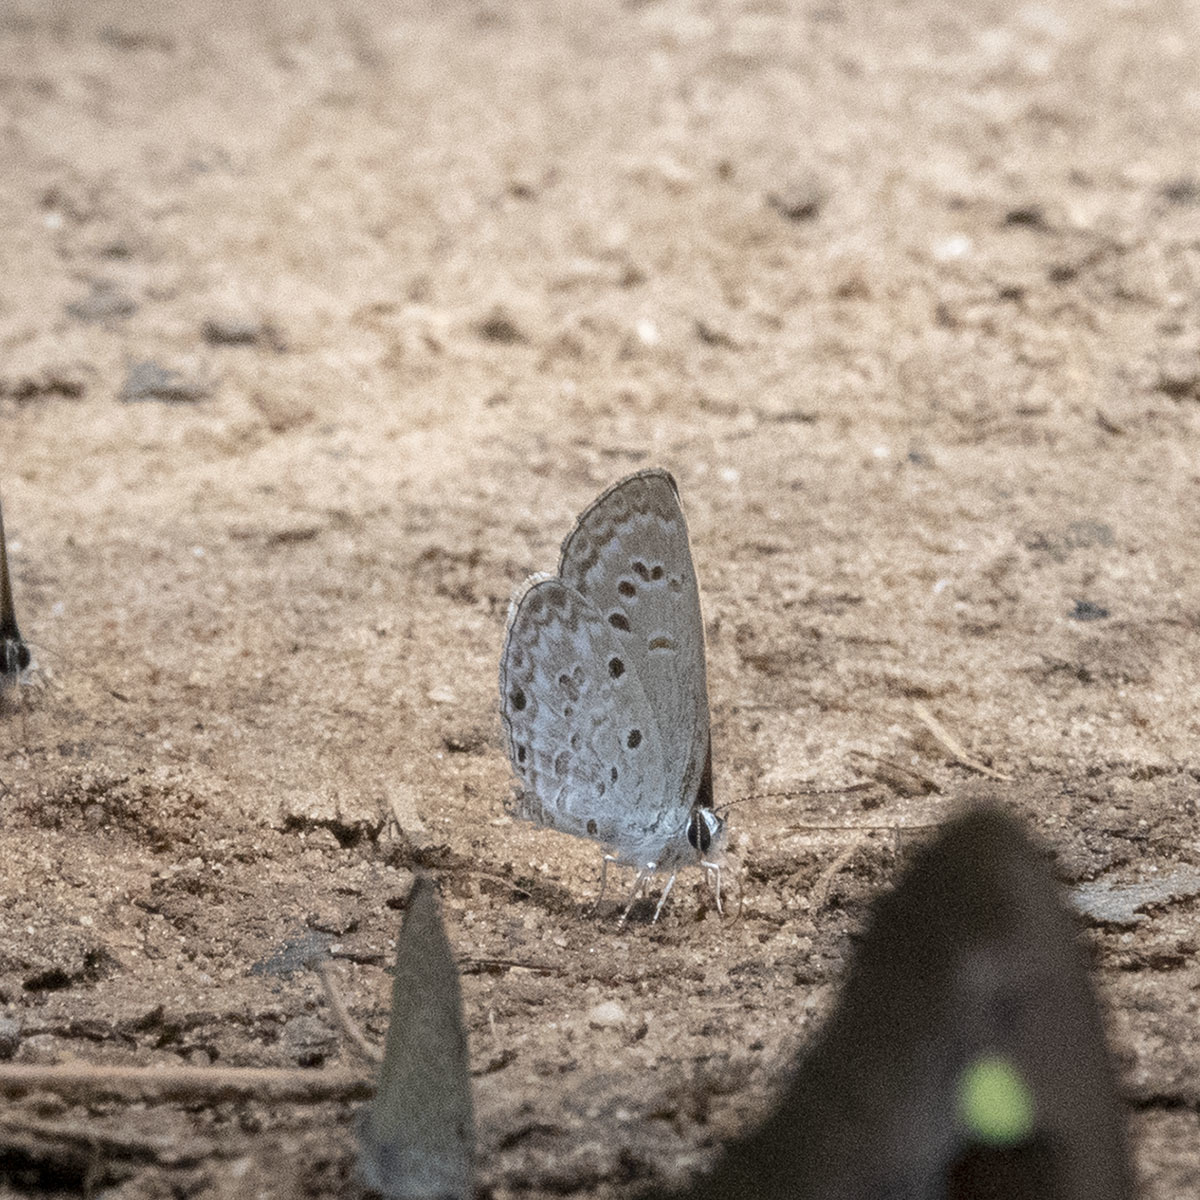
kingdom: Animalia
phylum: Arthropoda
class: Insecta
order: Lepidoptera
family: Lycaenidae
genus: Chilades
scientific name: Chilades laius
